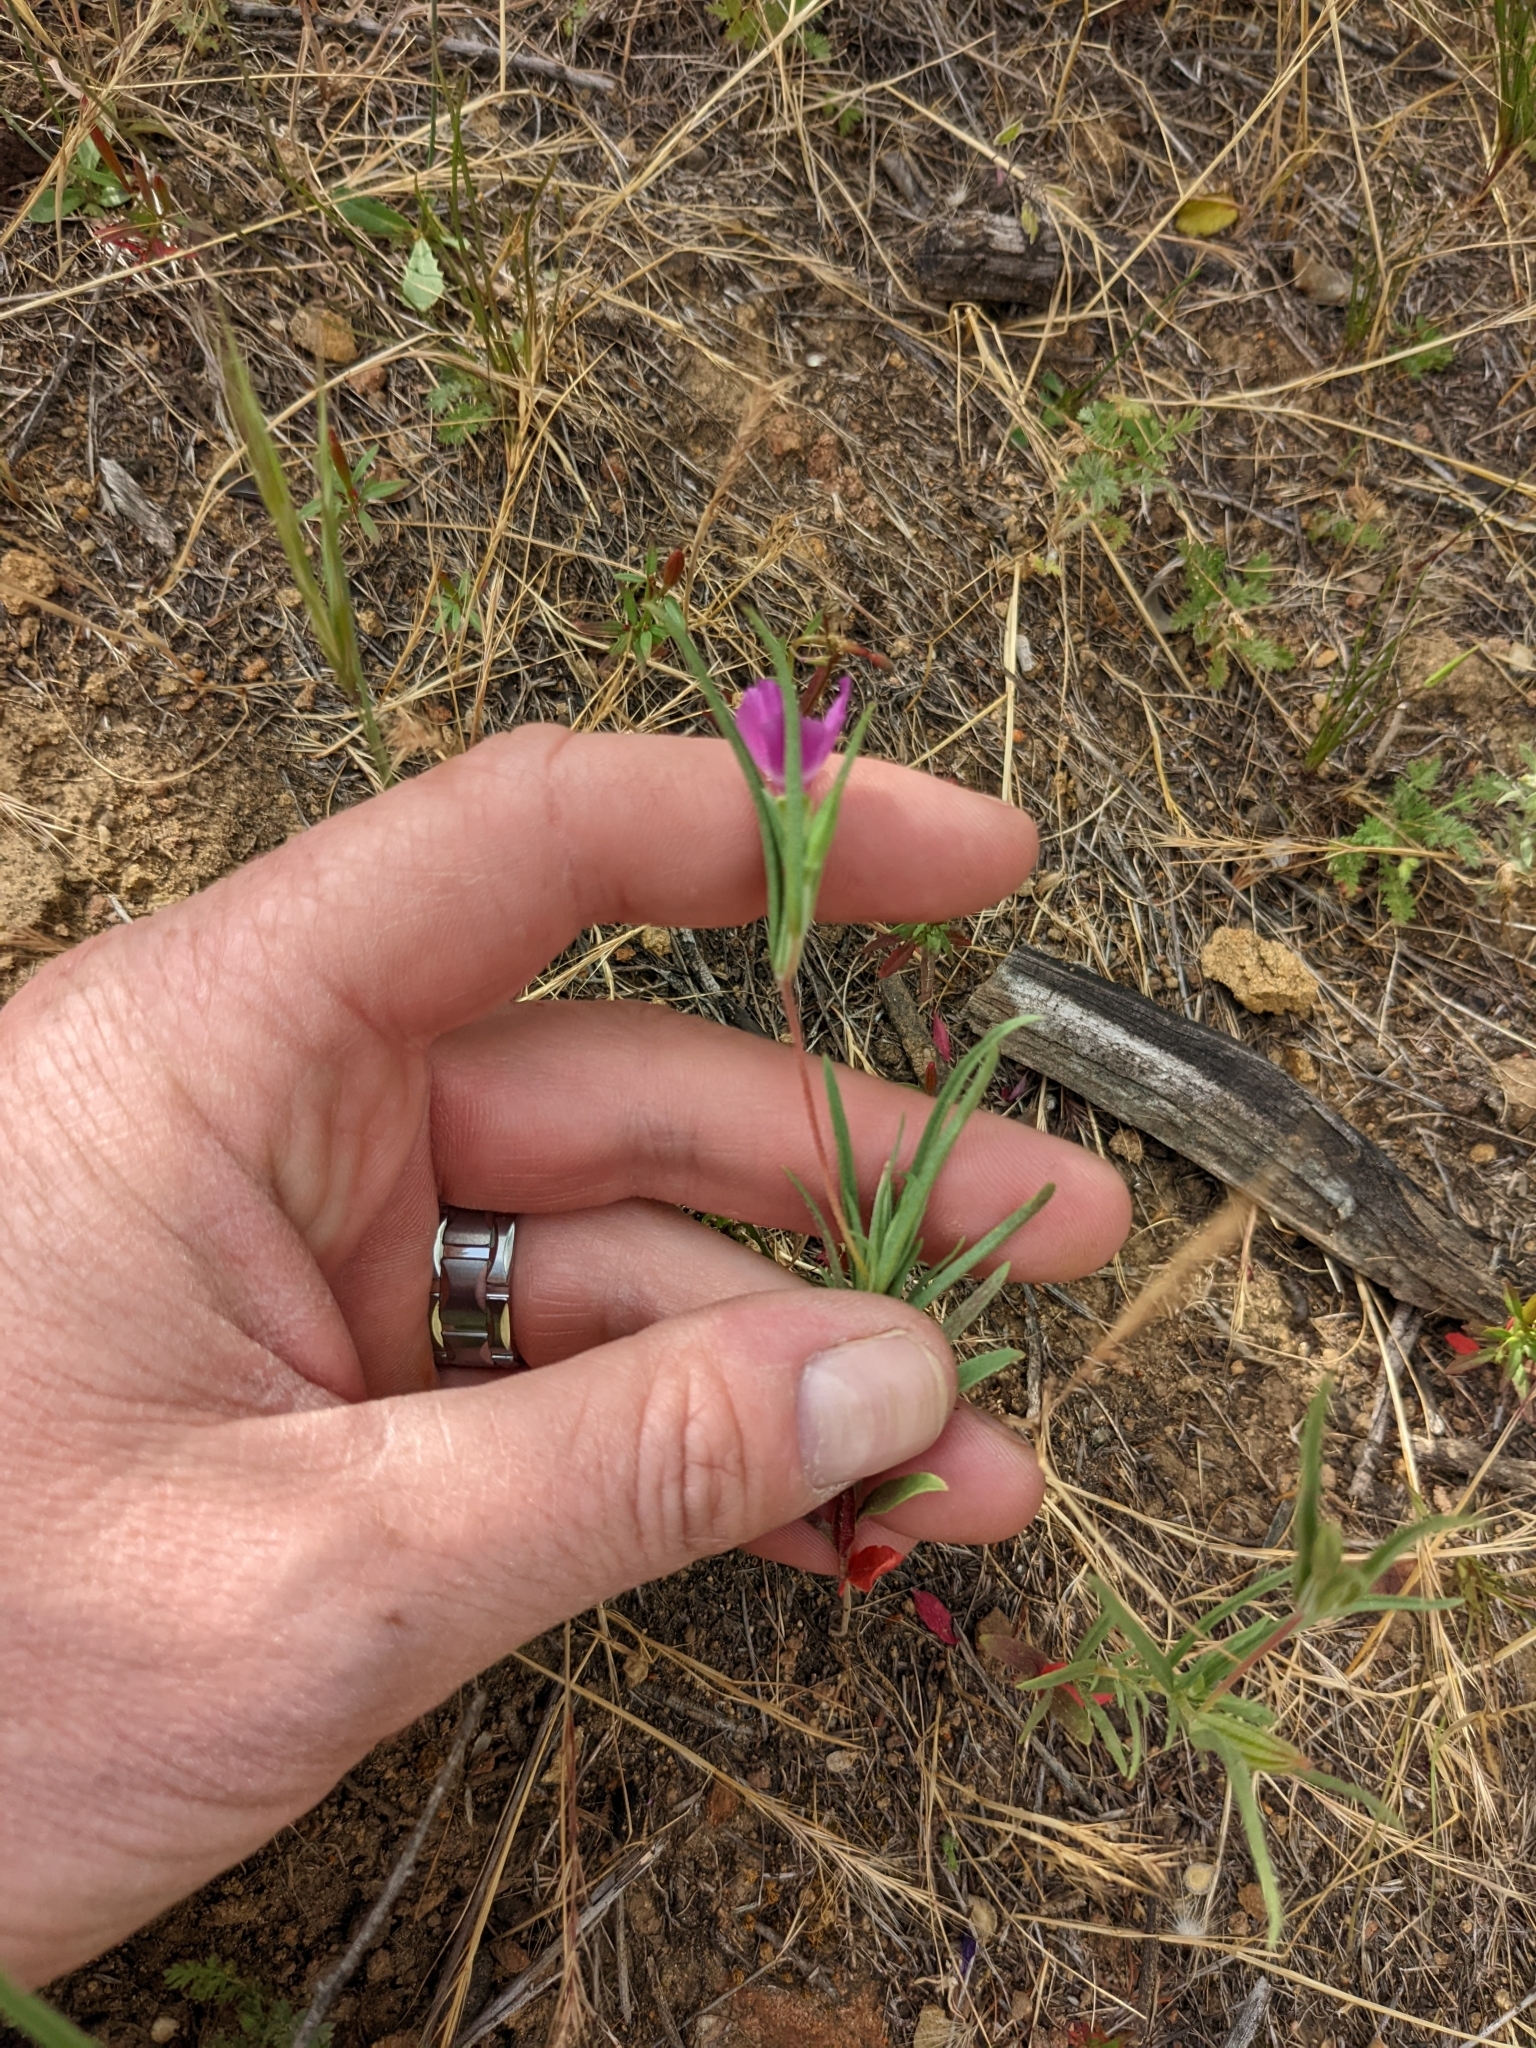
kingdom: Plantae
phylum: Tracheophyta
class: Magnoliopsida
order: Myrtales
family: Onagraceae
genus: Clarkia
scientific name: Clarkia purpurea
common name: Purple clarkia
